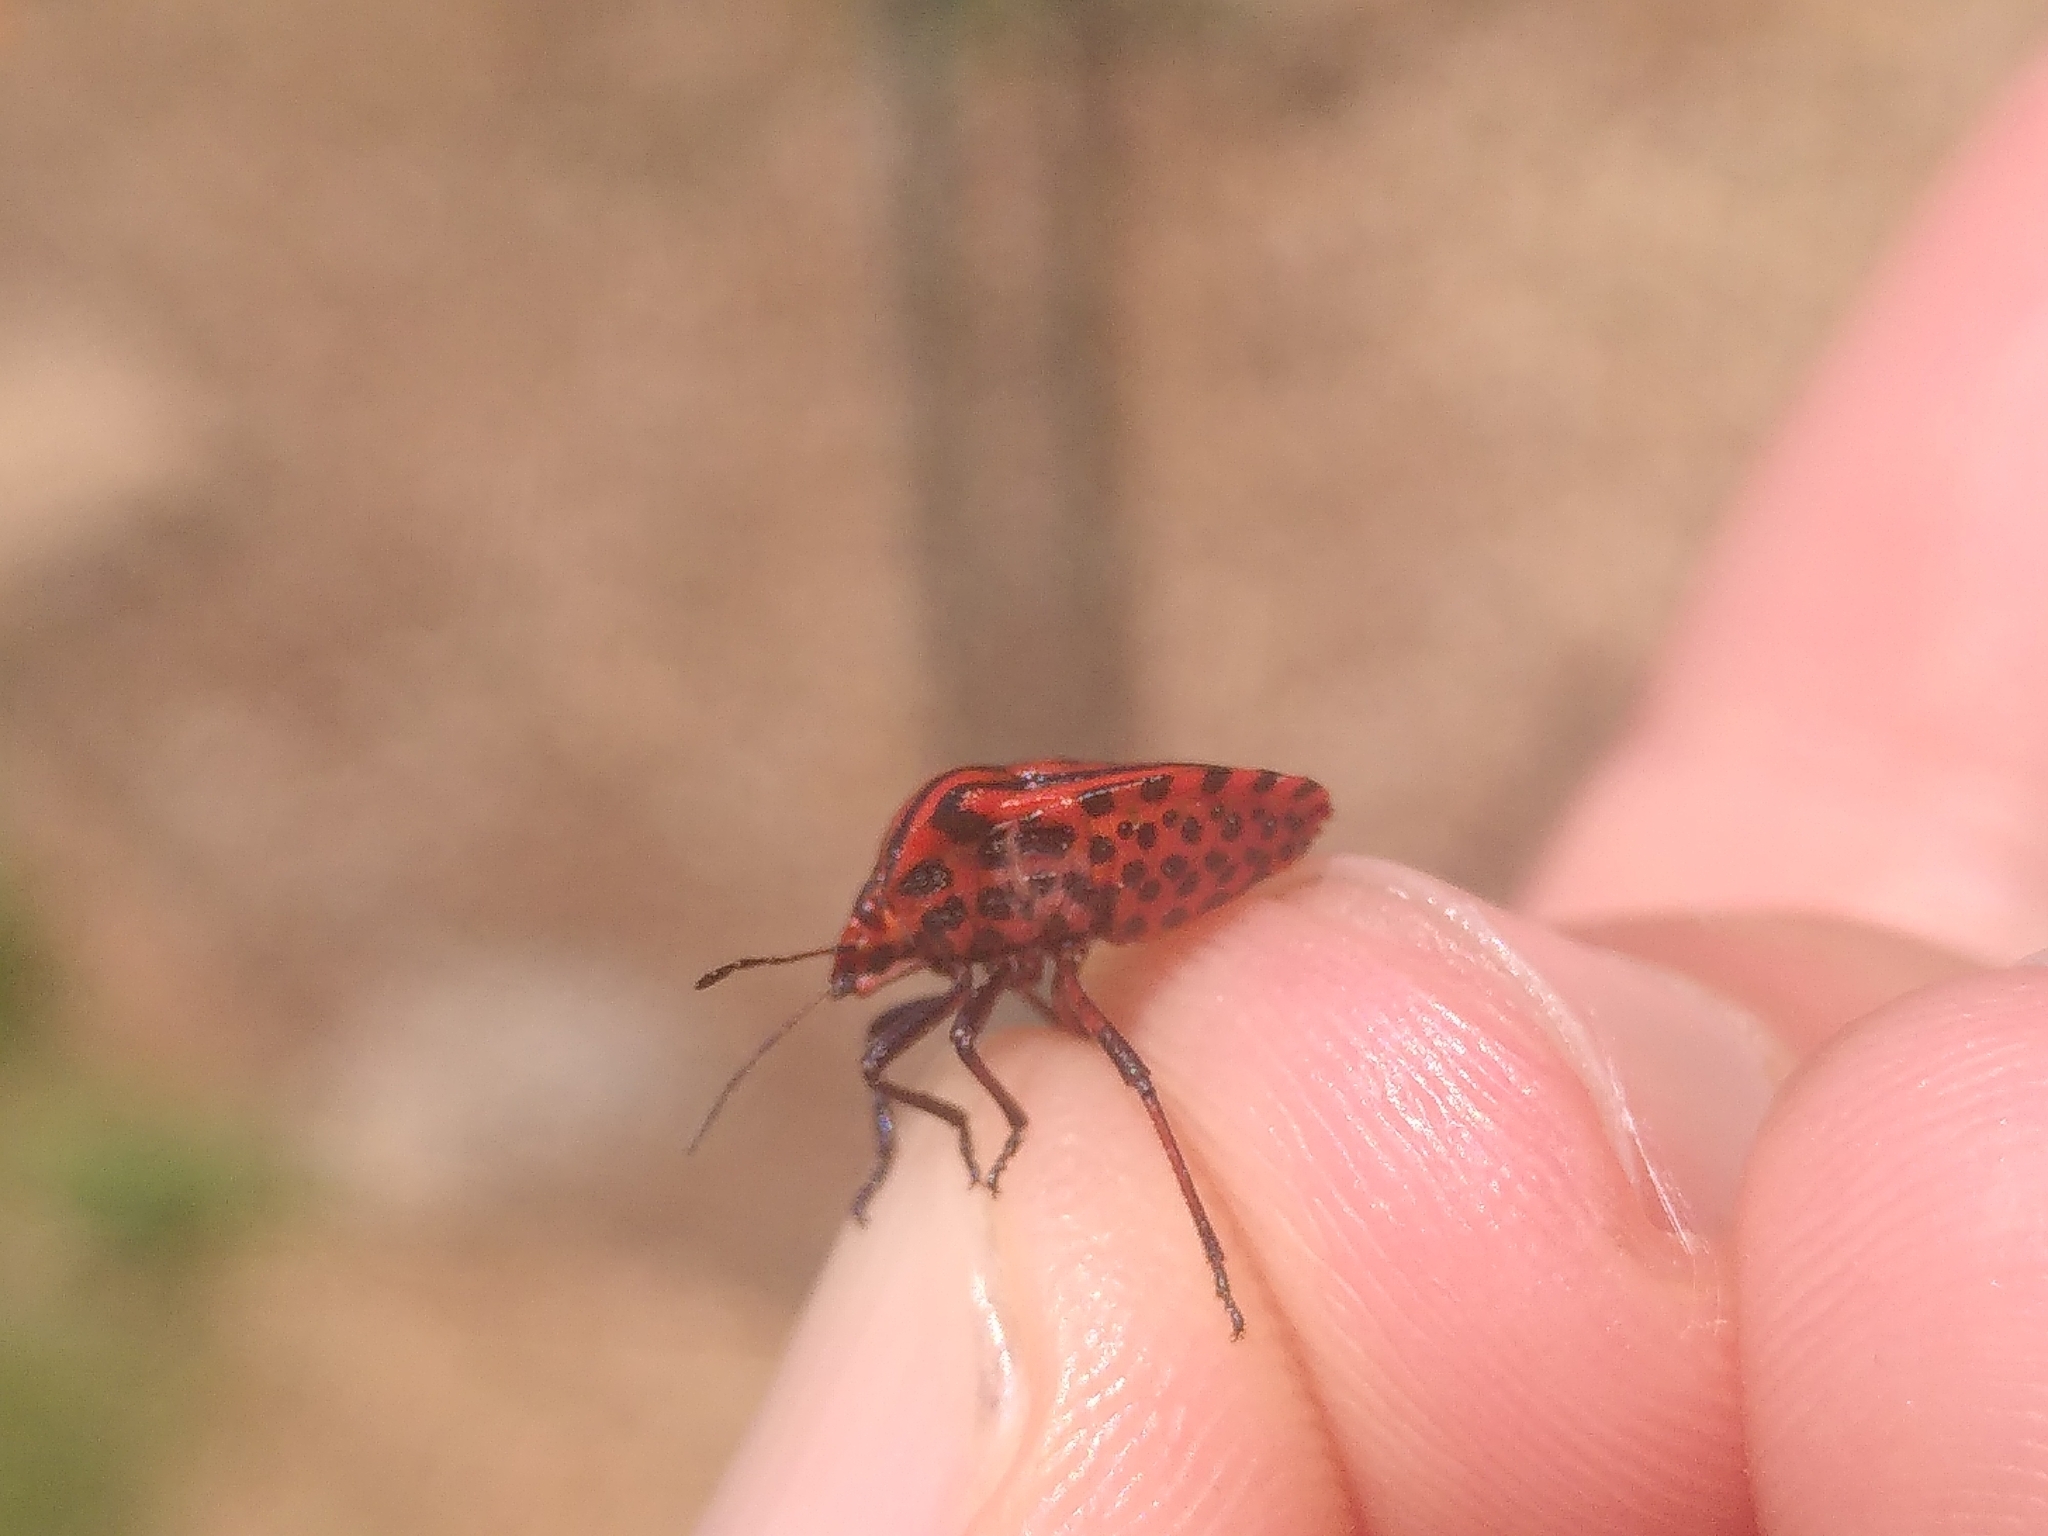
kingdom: Animalia
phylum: Arthropoda
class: Insecta
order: Hemiptera
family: Pentatomidae
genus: Graphosoma
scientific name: Graphosoma italicum
